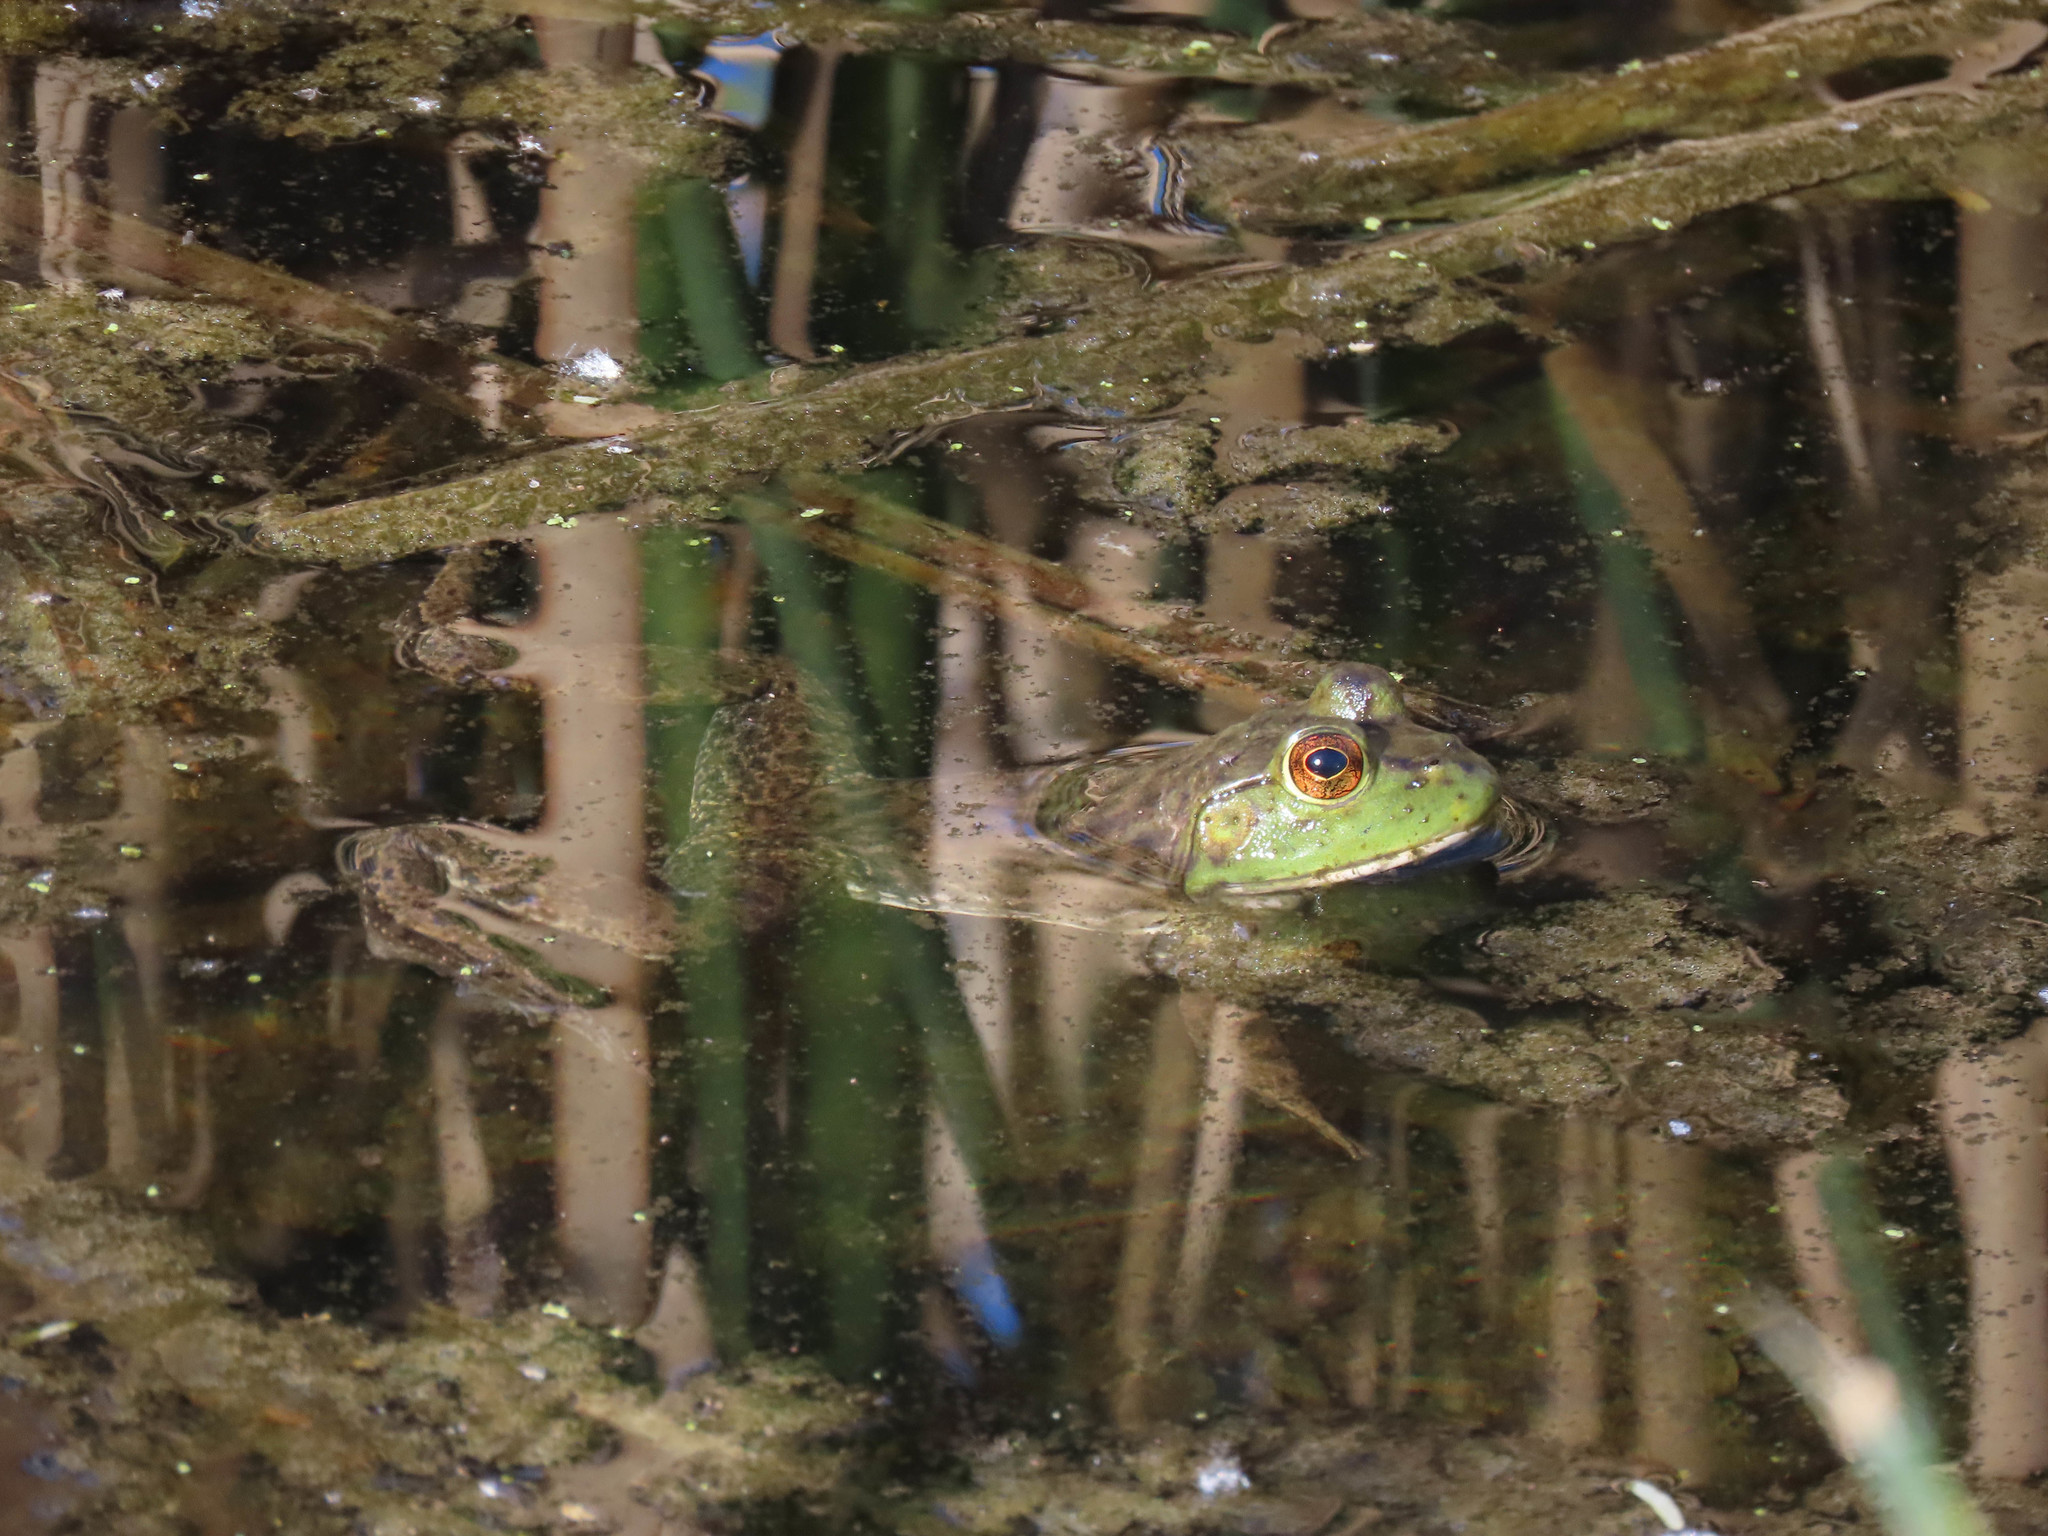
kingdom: Animalia
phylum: Chordata
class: Amphibia
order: Anura
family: Ranidae
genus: Lithobates
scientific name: Lithobates catesbeianus
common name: American bullfrog
